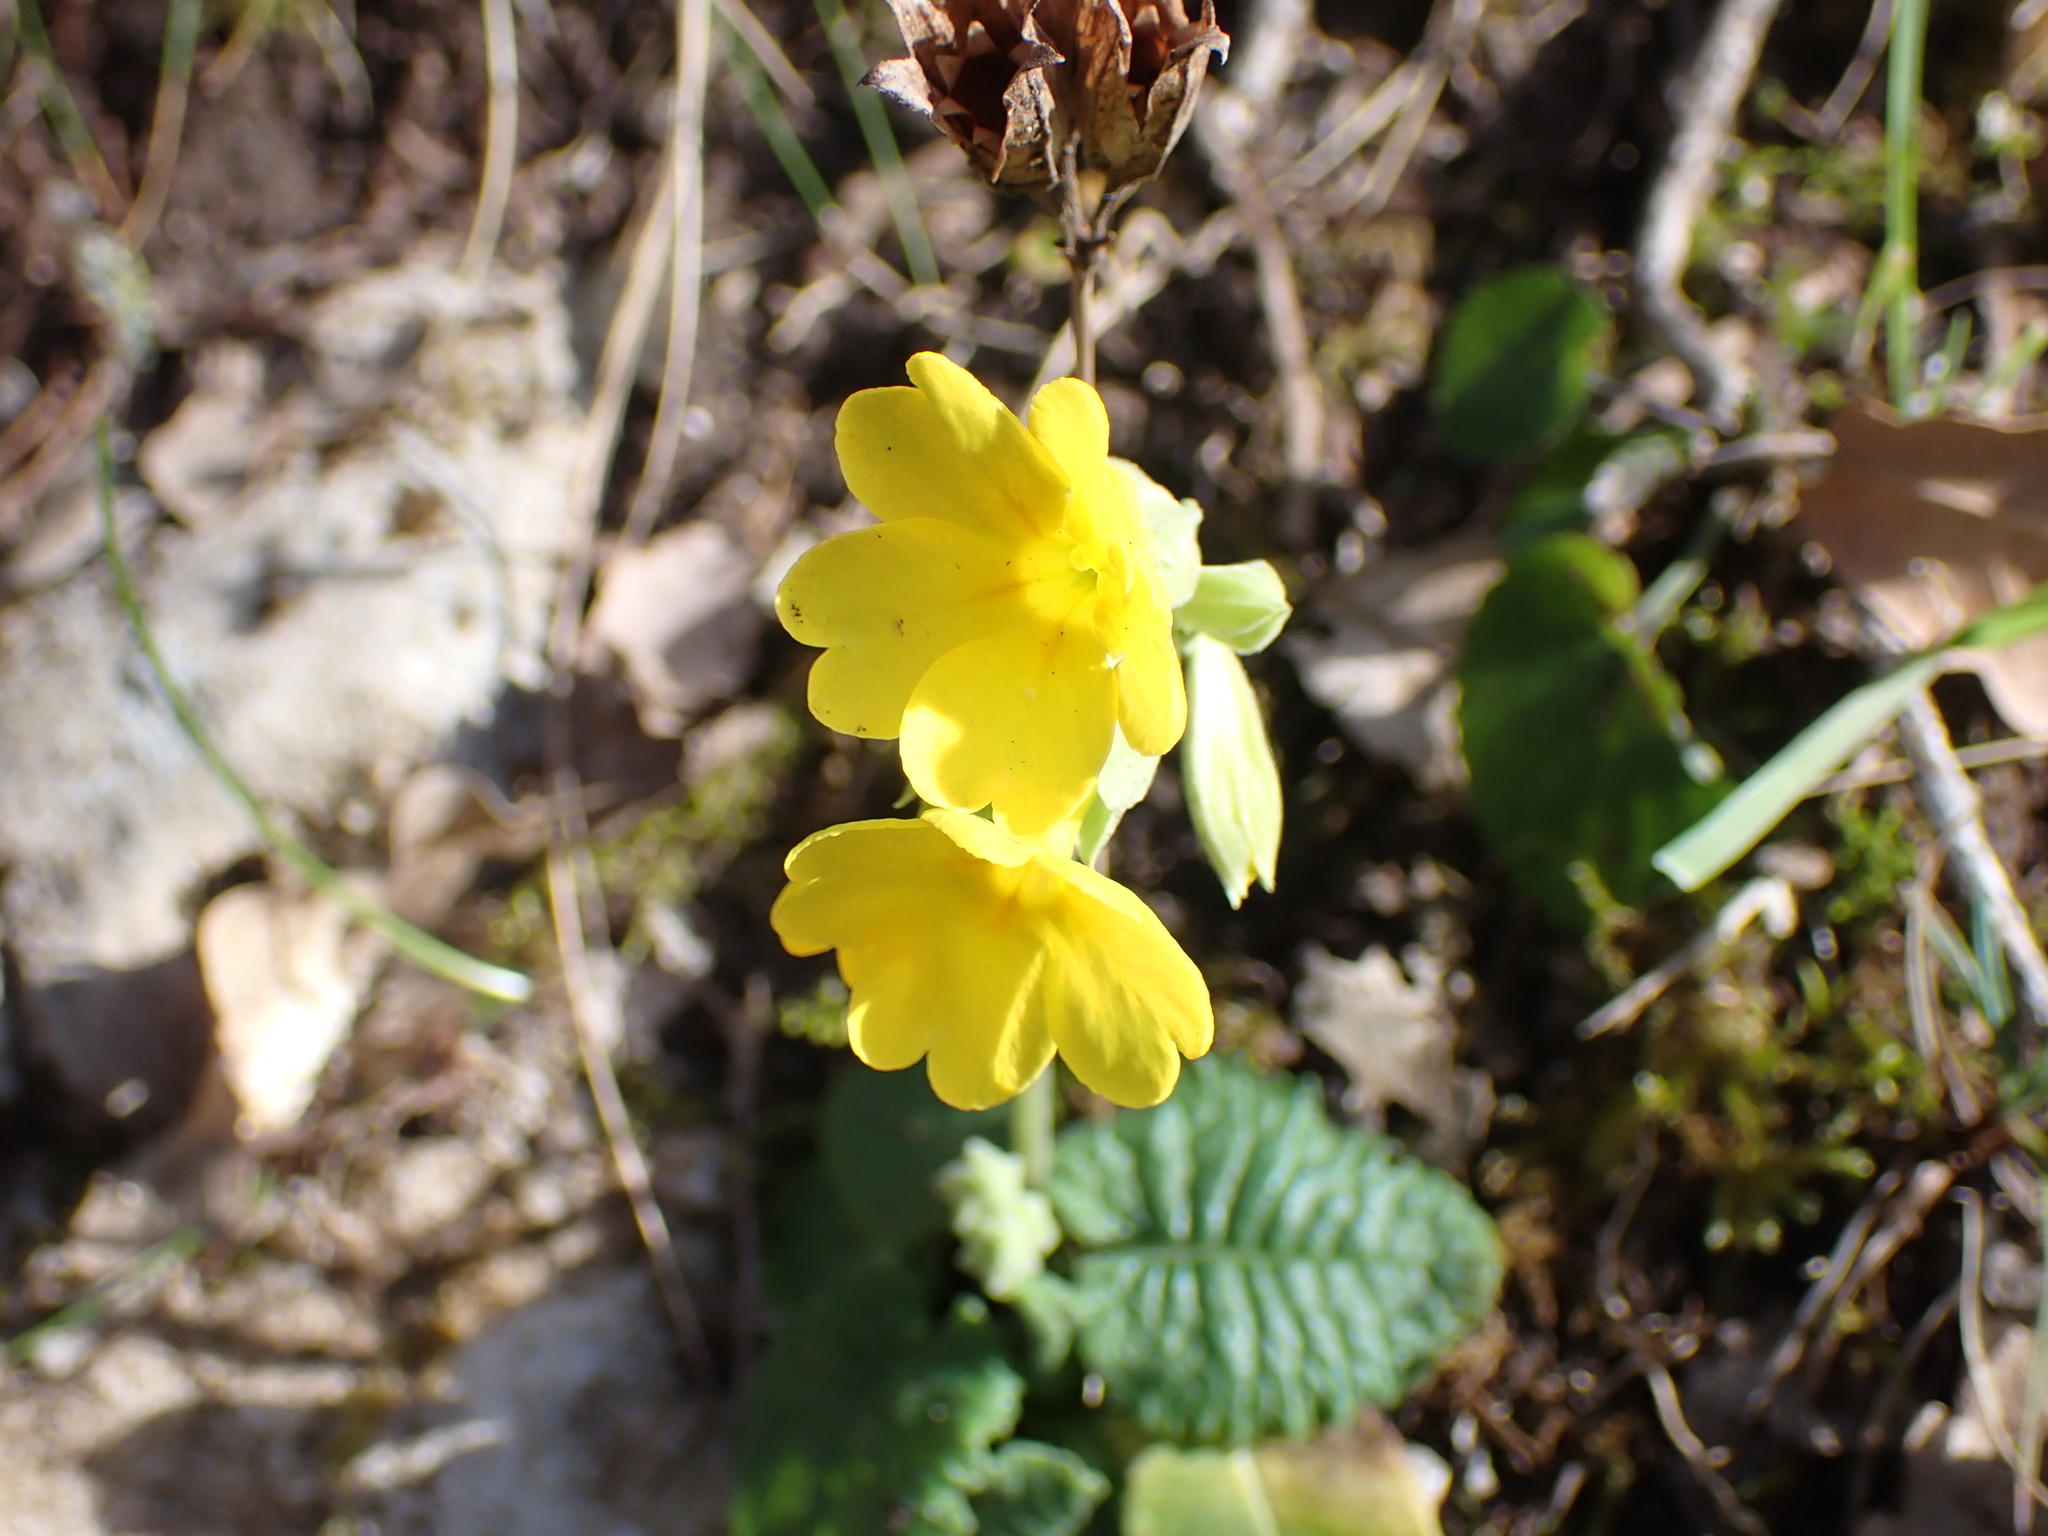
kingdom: Plantae
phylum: Tracheophyta
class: Magnoliopsida
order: Ericales
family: Primulaceae
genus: Primula
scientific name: Primula veris
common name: Cowslip
